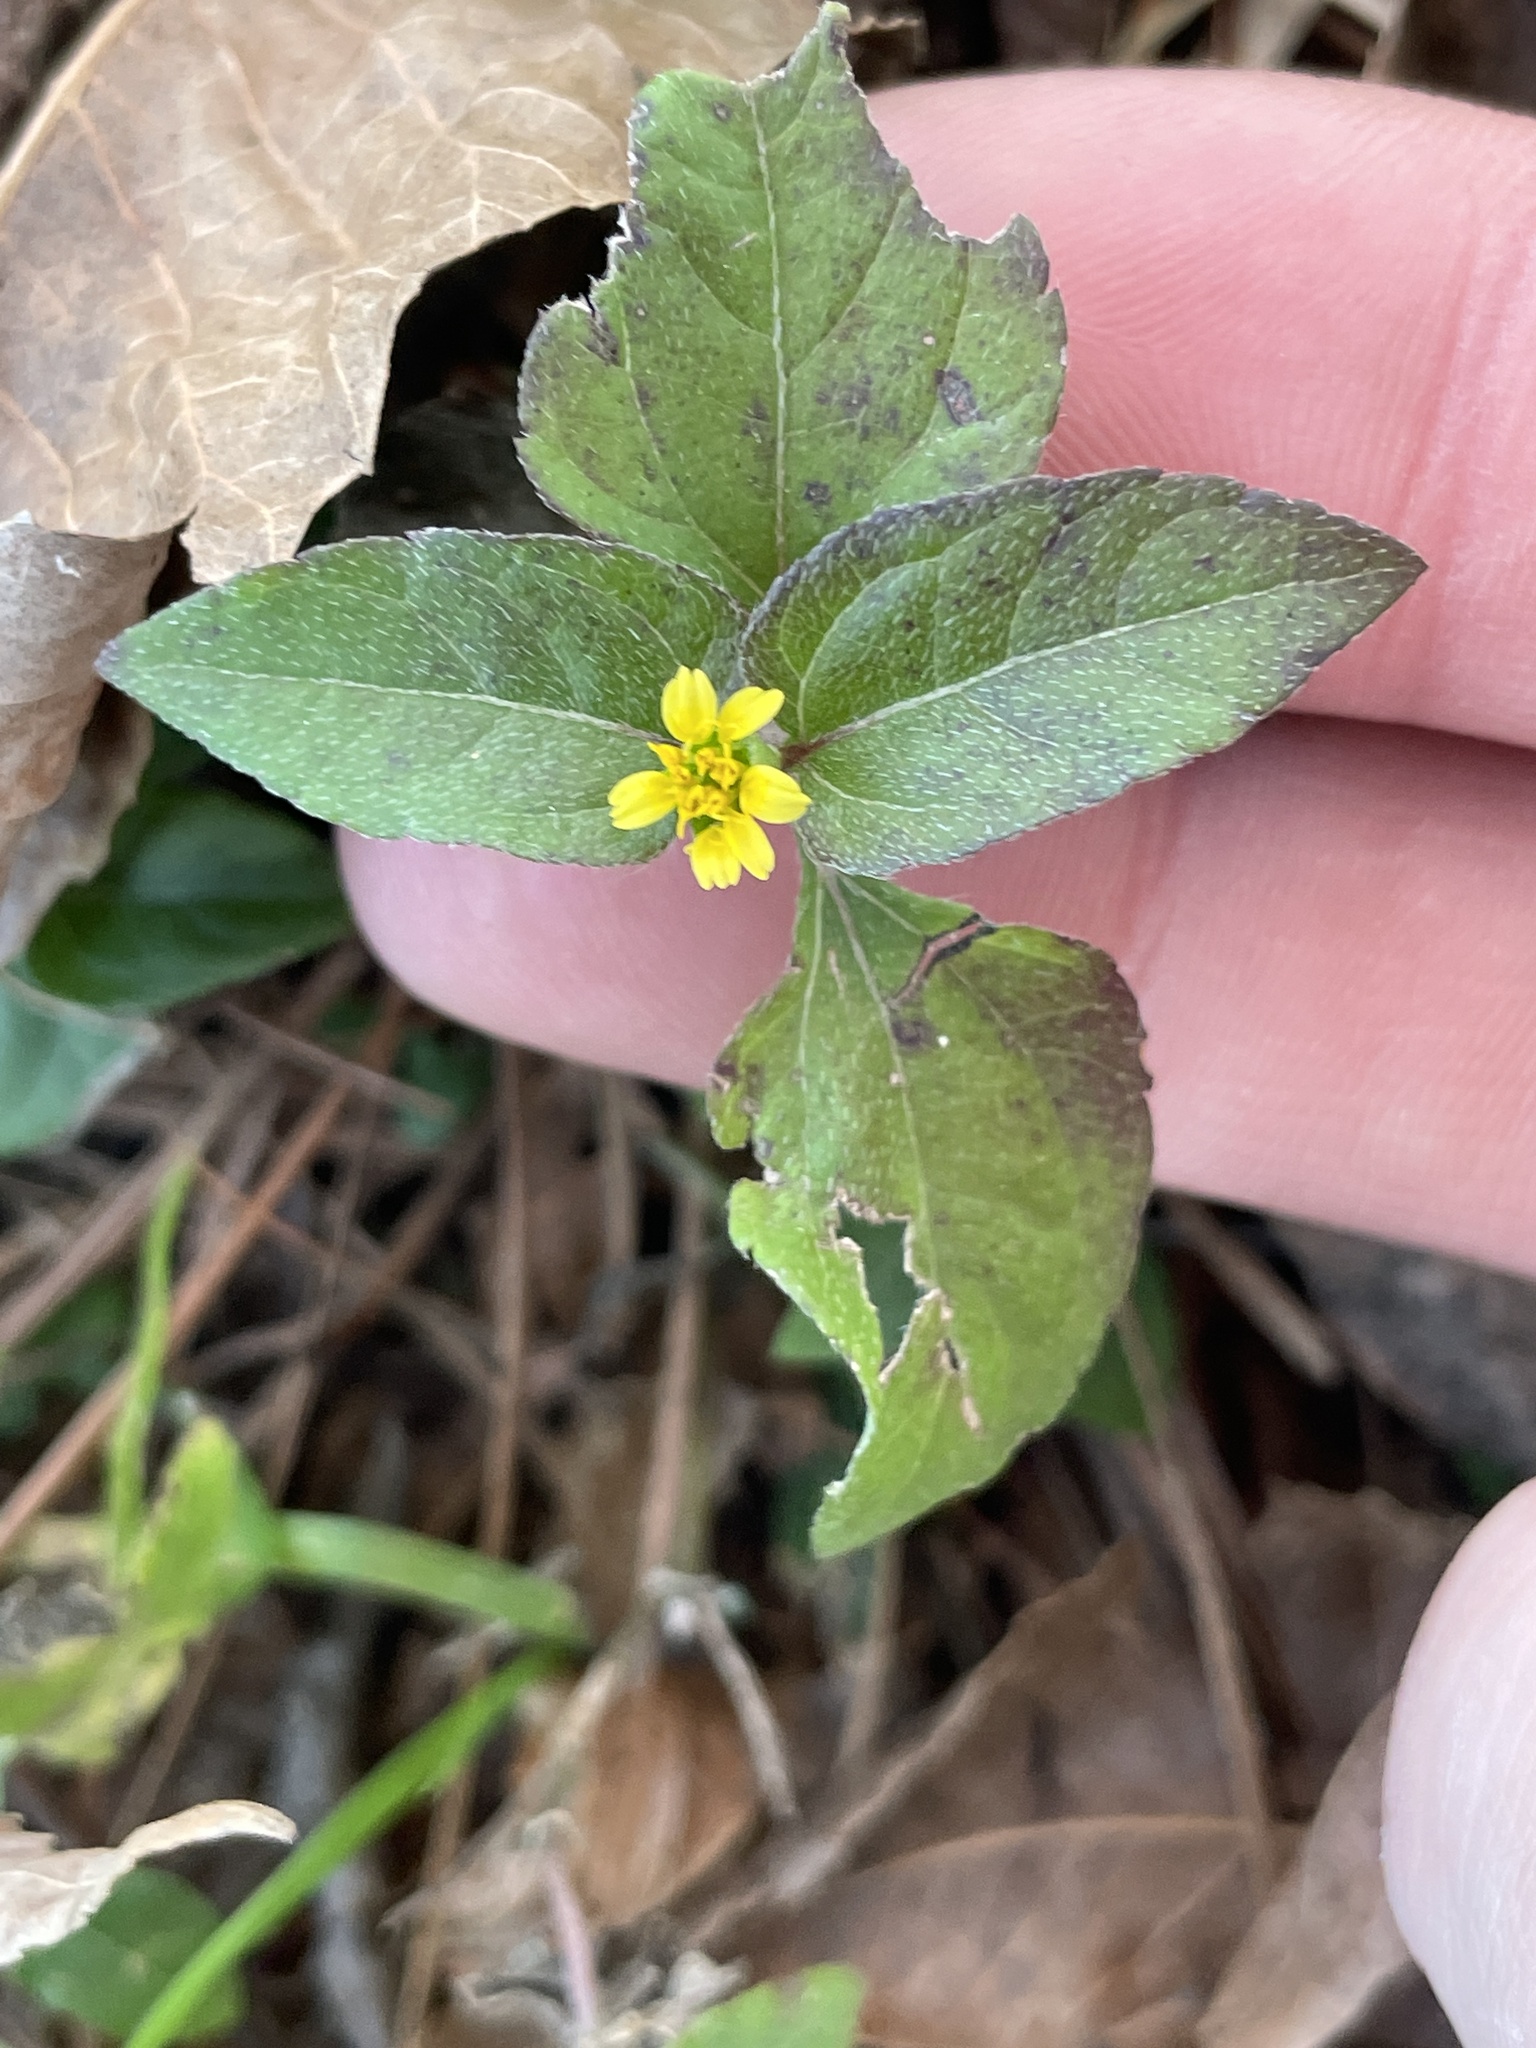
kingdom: Plantae
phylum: Tracheophyta
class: Magnoliopsida
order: Asterales
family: Asteraceae
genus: Calyptocarpus
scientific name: Calyptocarpus vialis
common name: Straggler daisy
